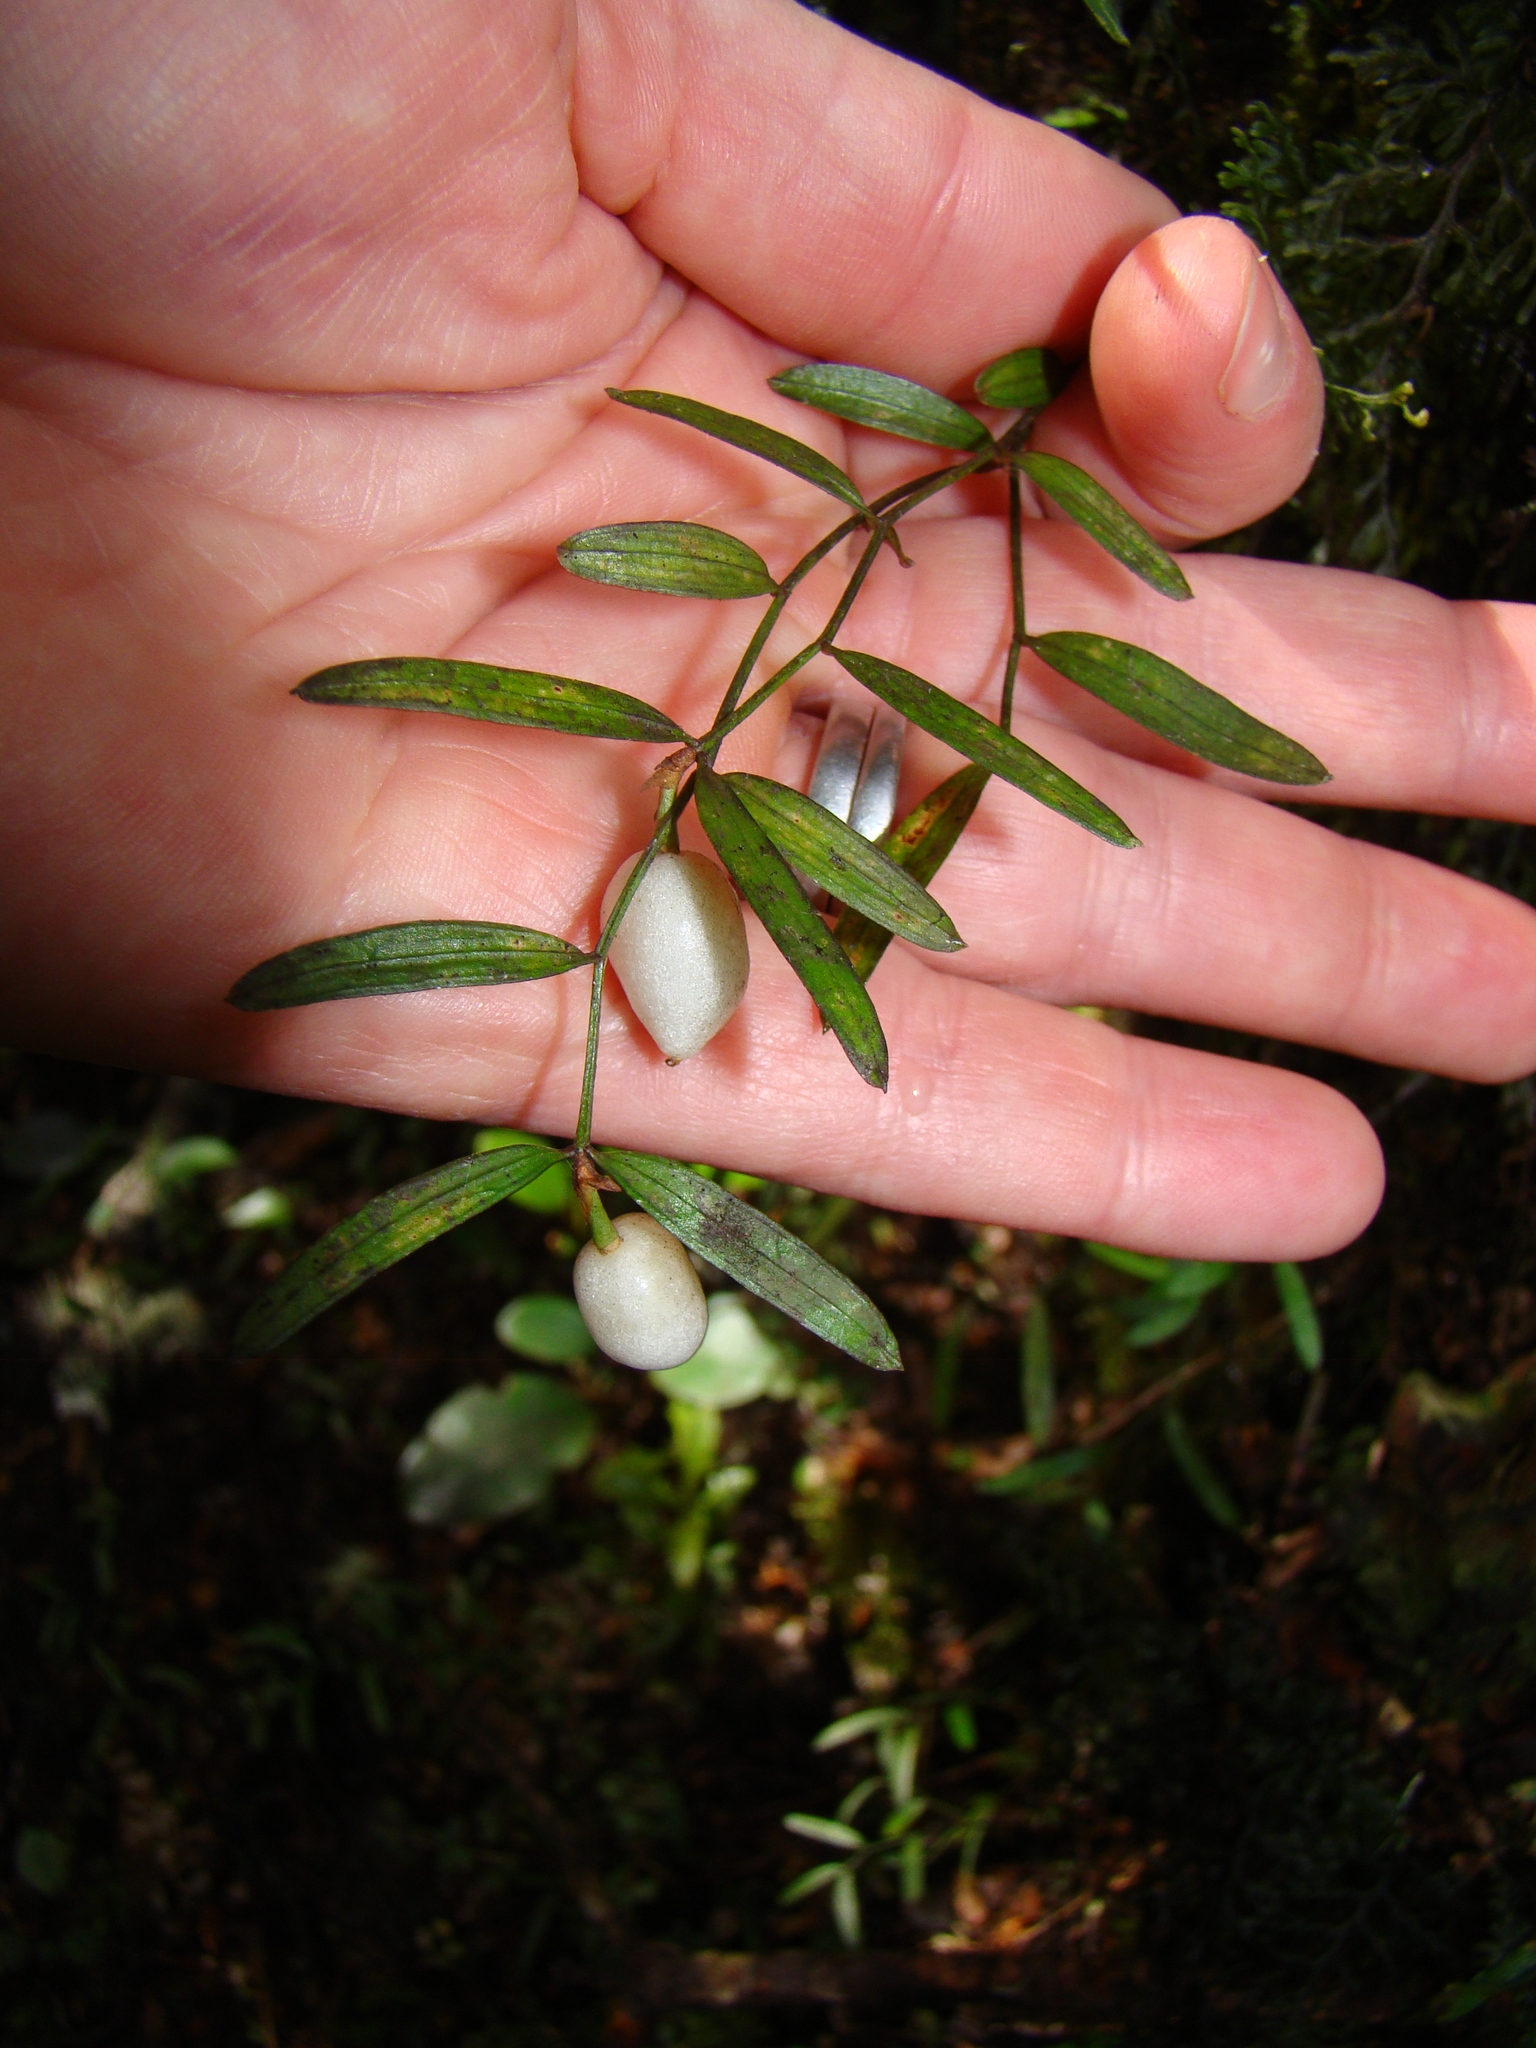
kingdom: Plantae
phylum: Tracheophyta
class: Liliopsida
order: Liliales
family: Alstroemeriaceae
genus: Luzuriaga
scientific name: Luzuriaga parviflora
